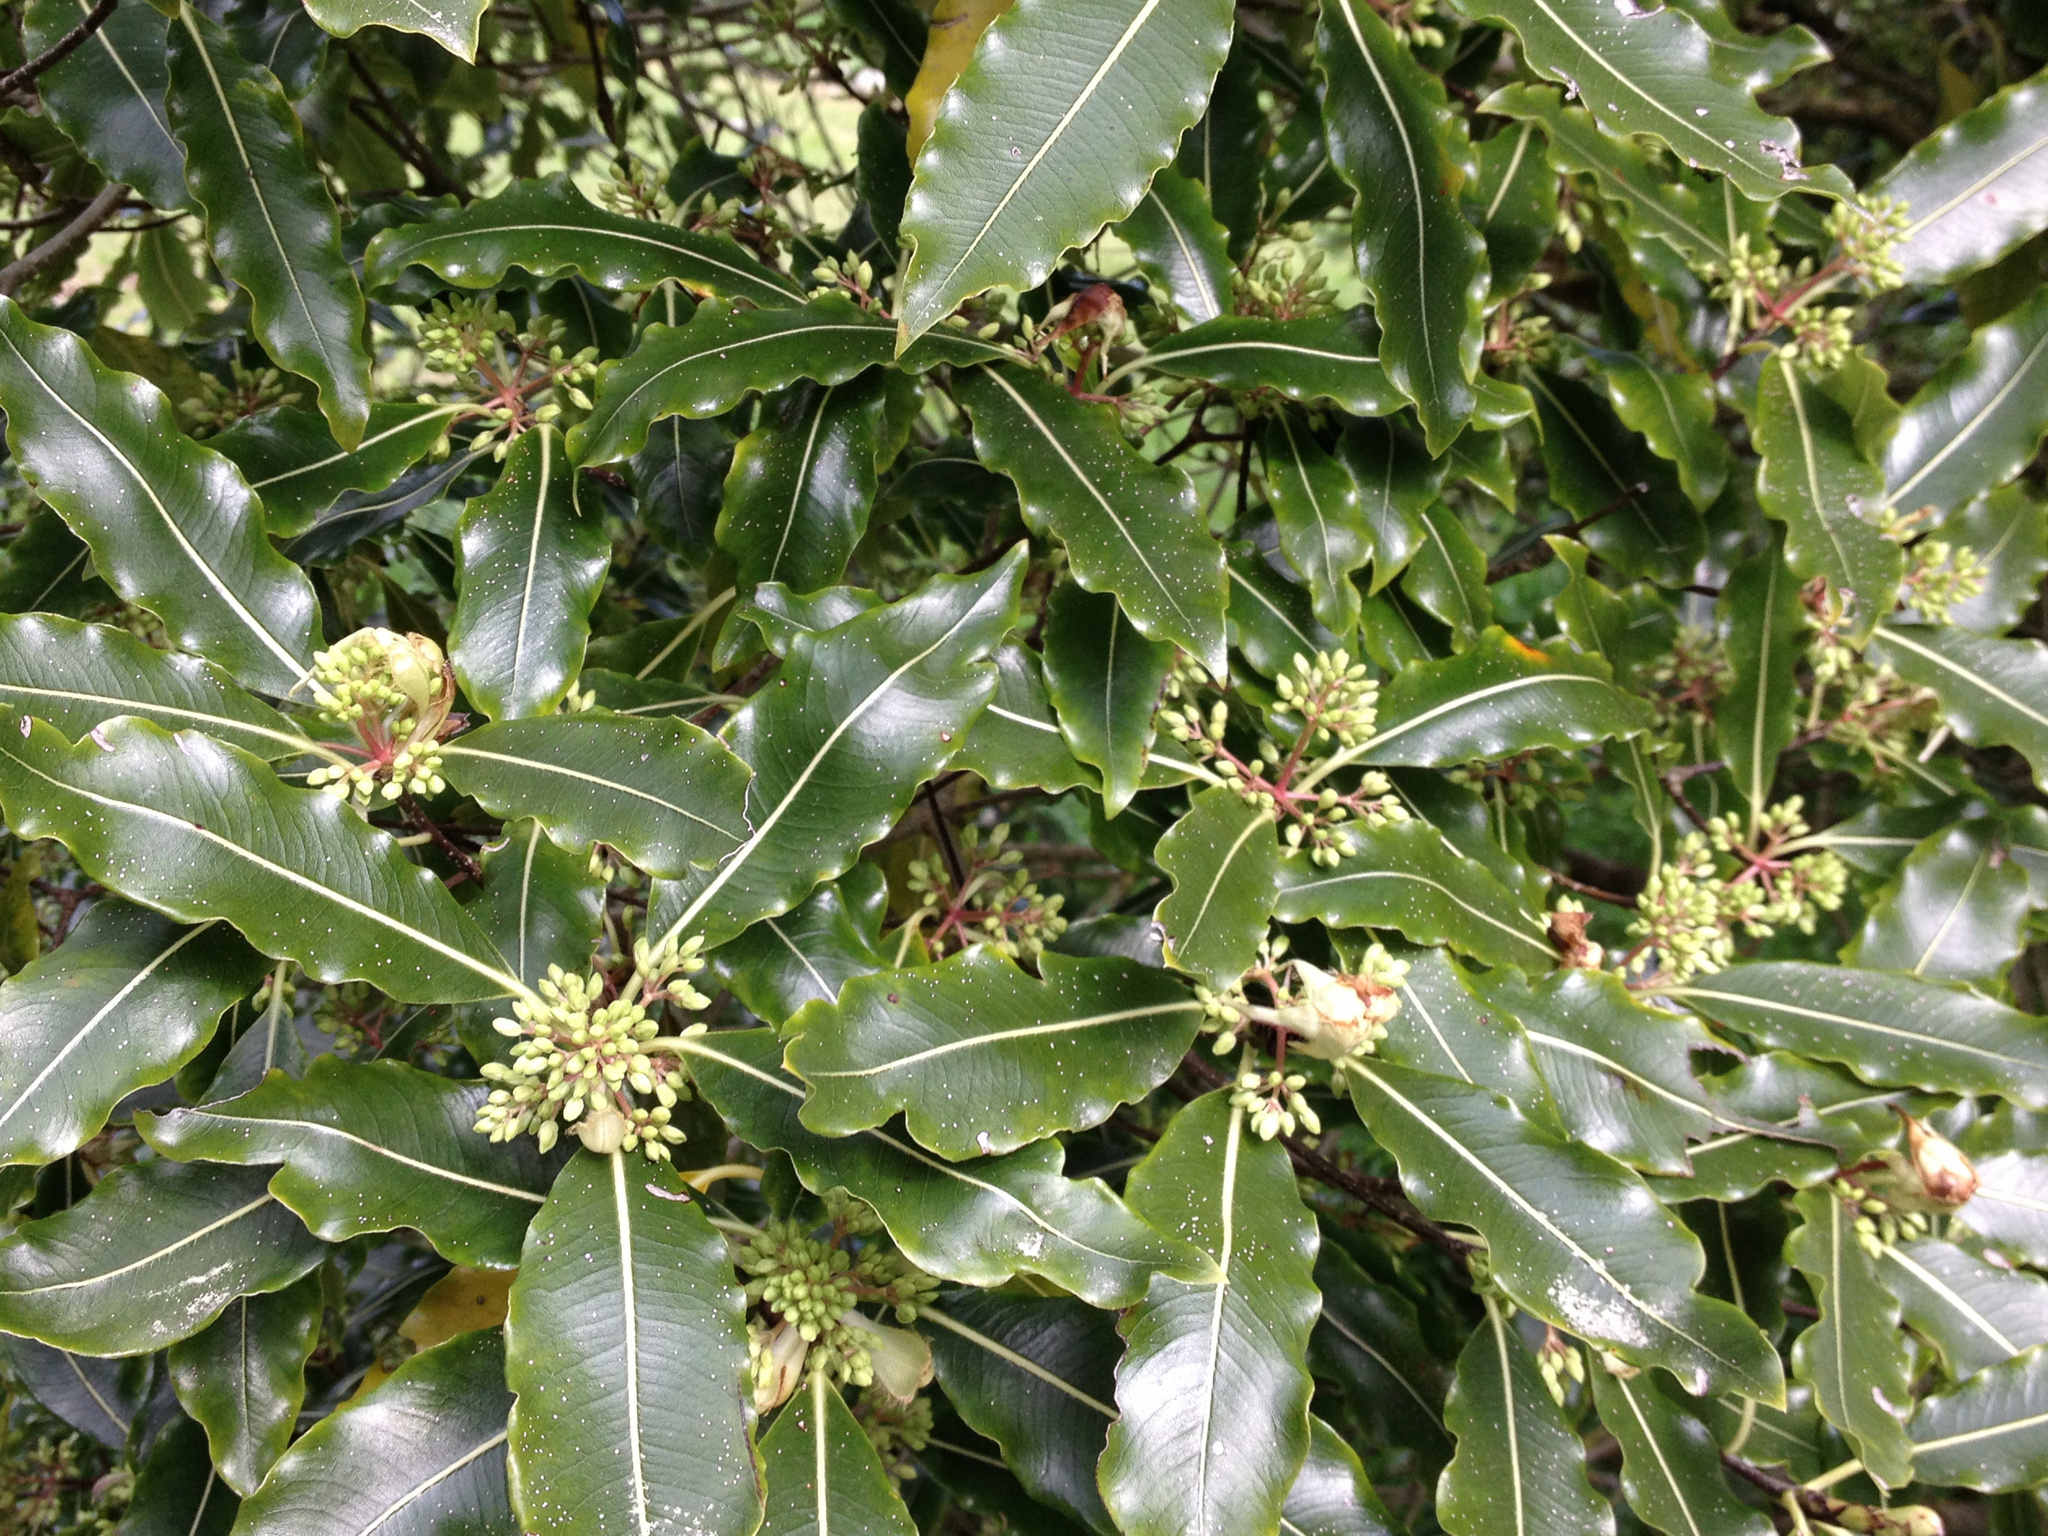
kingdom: Plantae
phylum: Tracheophyta
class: Magnoliopsida
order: Apiales
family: Pittosporaceae
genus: Pittosporum
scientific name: Pittosporum eugenioides
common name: Lemonwood
